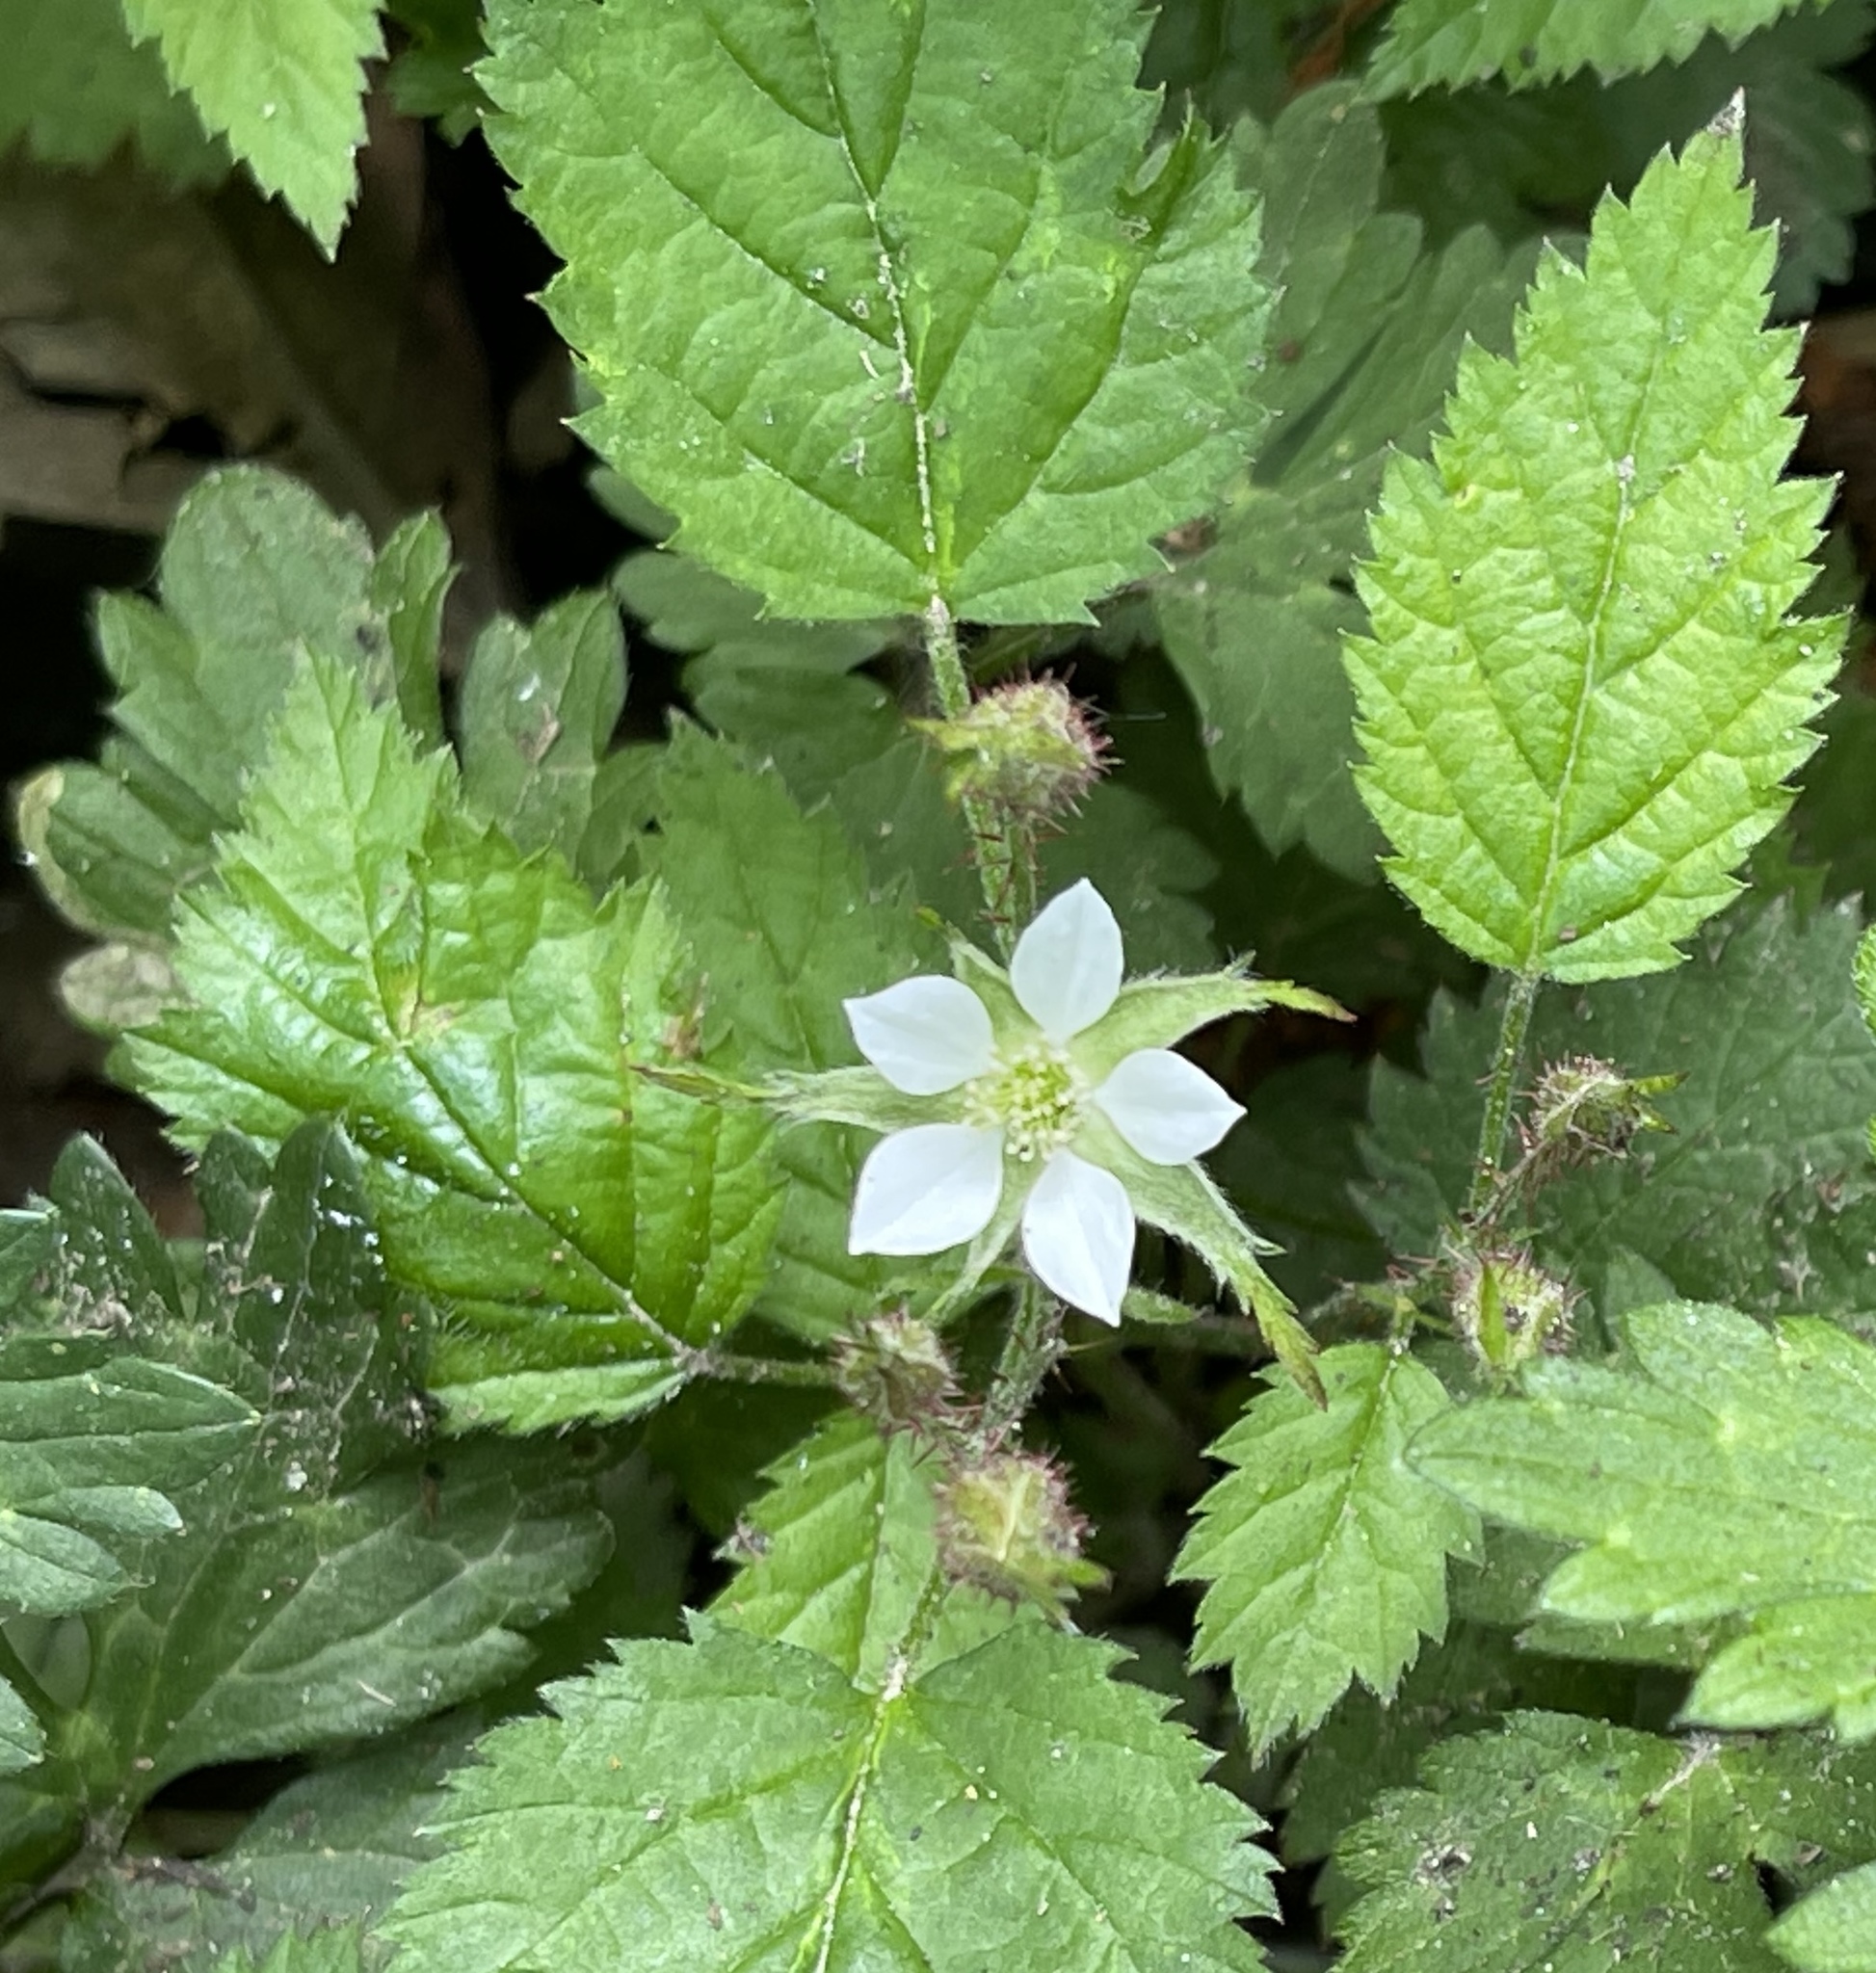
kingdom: Plantae
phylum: Tracheophyta
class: Magnoliopsida
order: Rosales
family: Rosaceae
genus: Rubus
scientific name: Rubus ursinus
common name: Pacific blackberry
